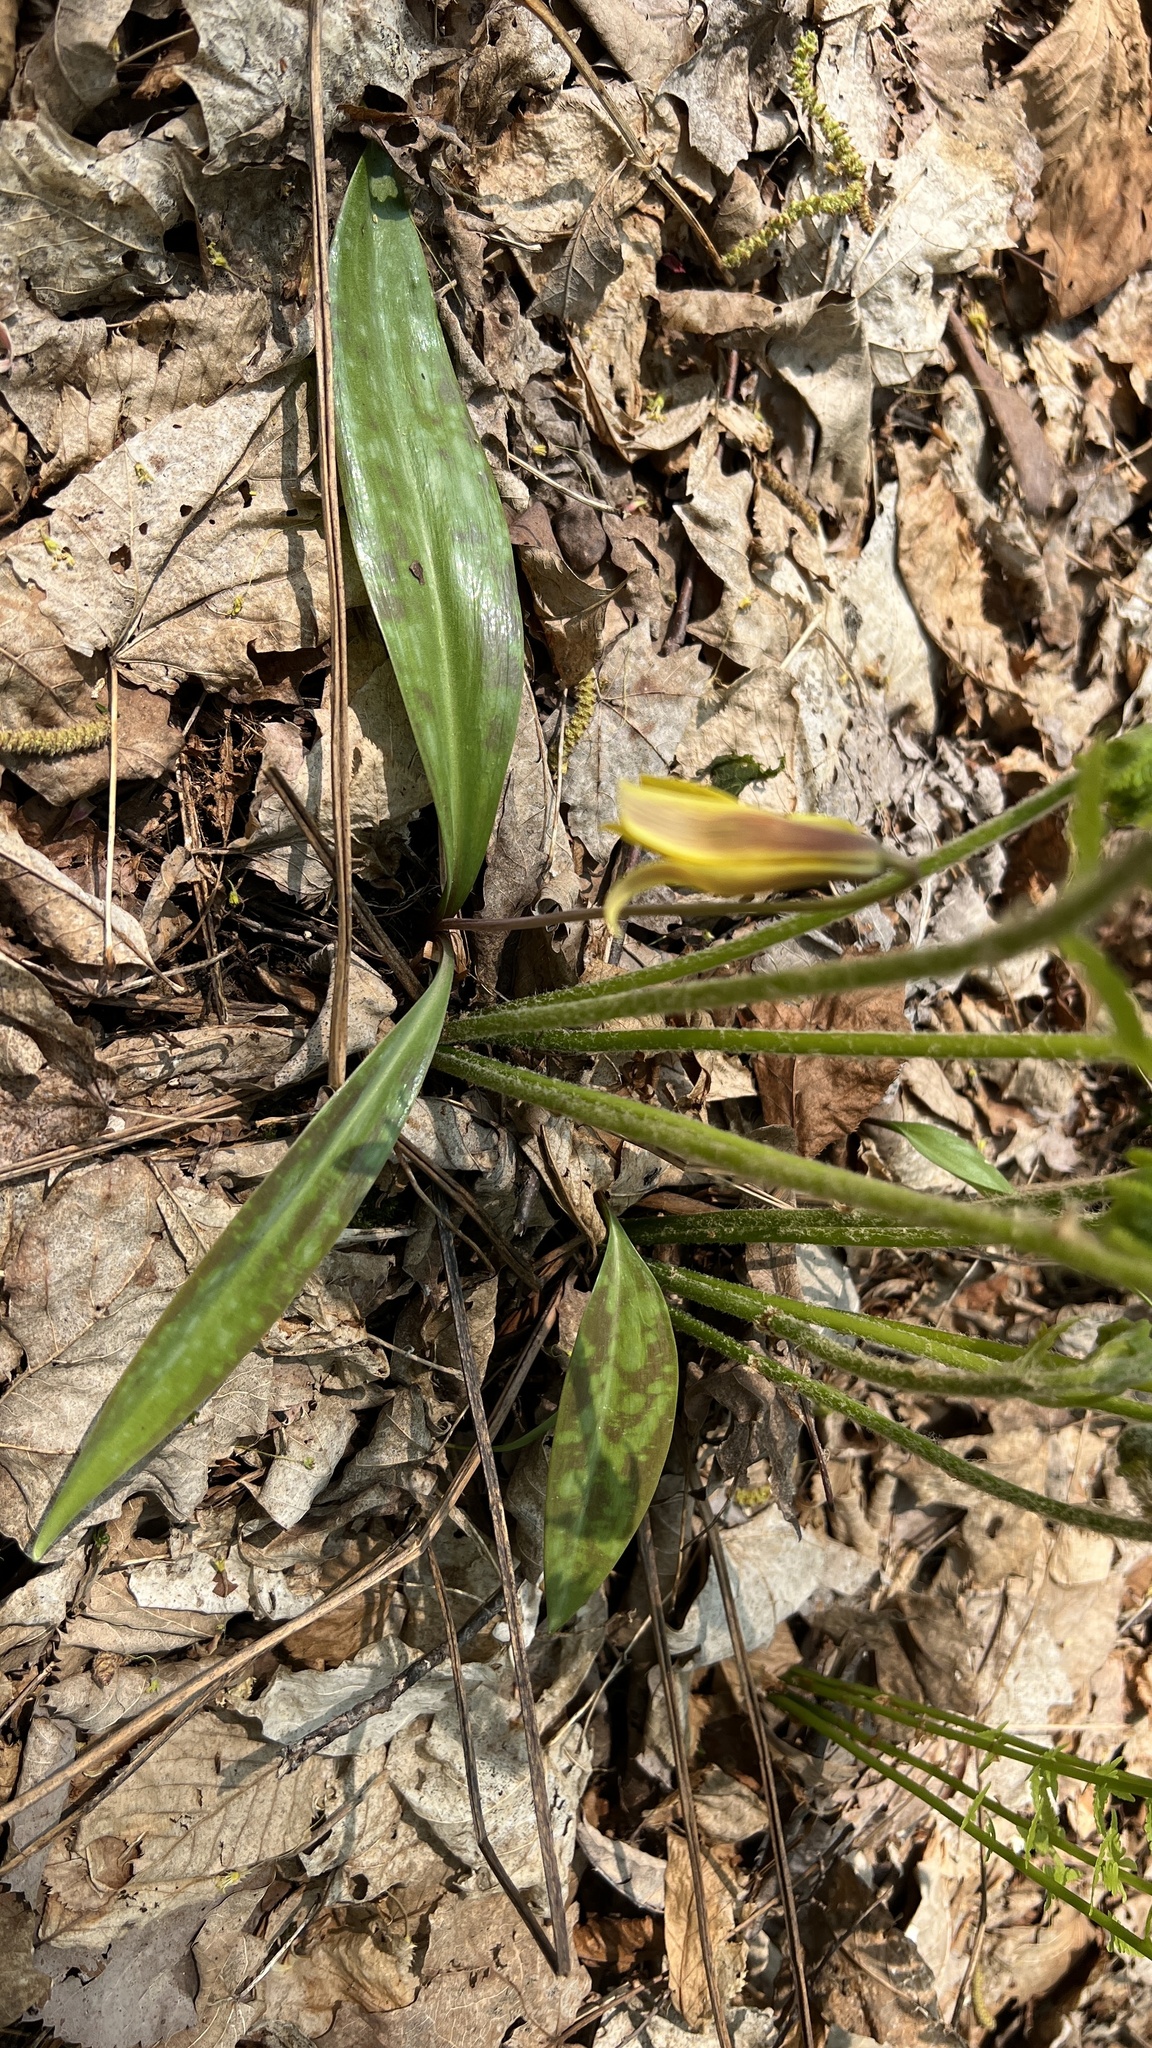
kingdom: Plantae
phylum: Tracheophyta
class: Liliopsida
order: Liliales
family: Liliaceae
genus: Erythronium
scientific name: Erythronium americanum
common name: Yellow adder's-tongue
